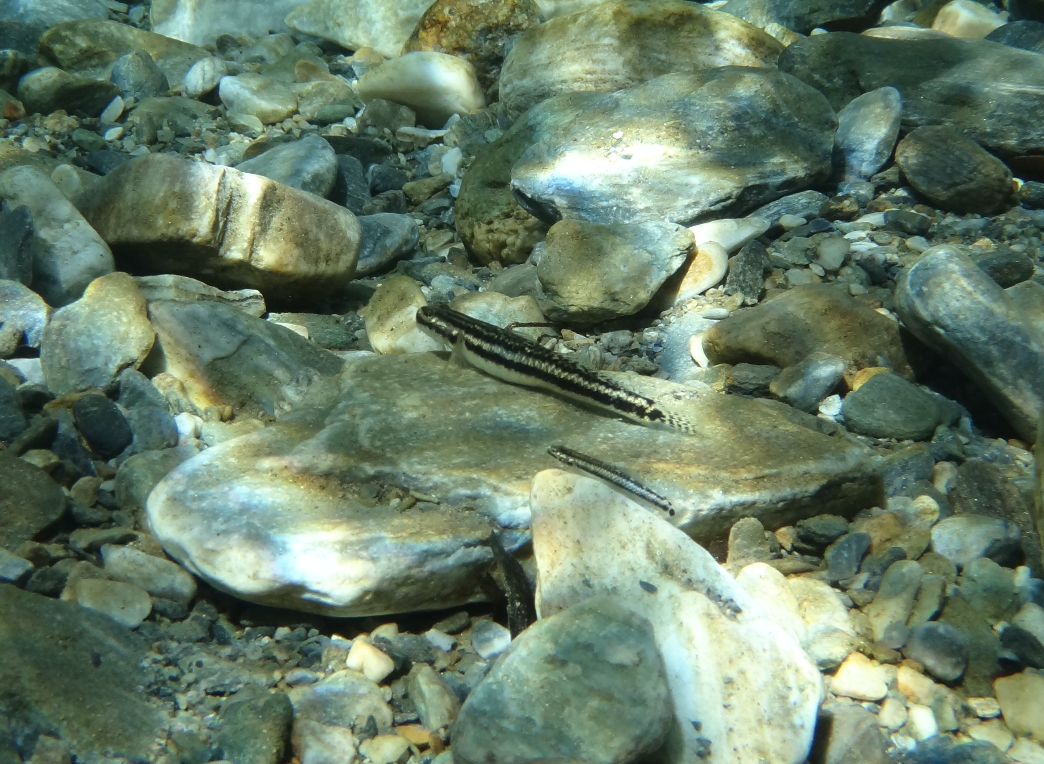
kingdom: Animalia
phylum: Chordata
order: Perciformes
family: Gobiidae
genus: Stiphodon
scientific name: Stiphodon percnopterygionus
